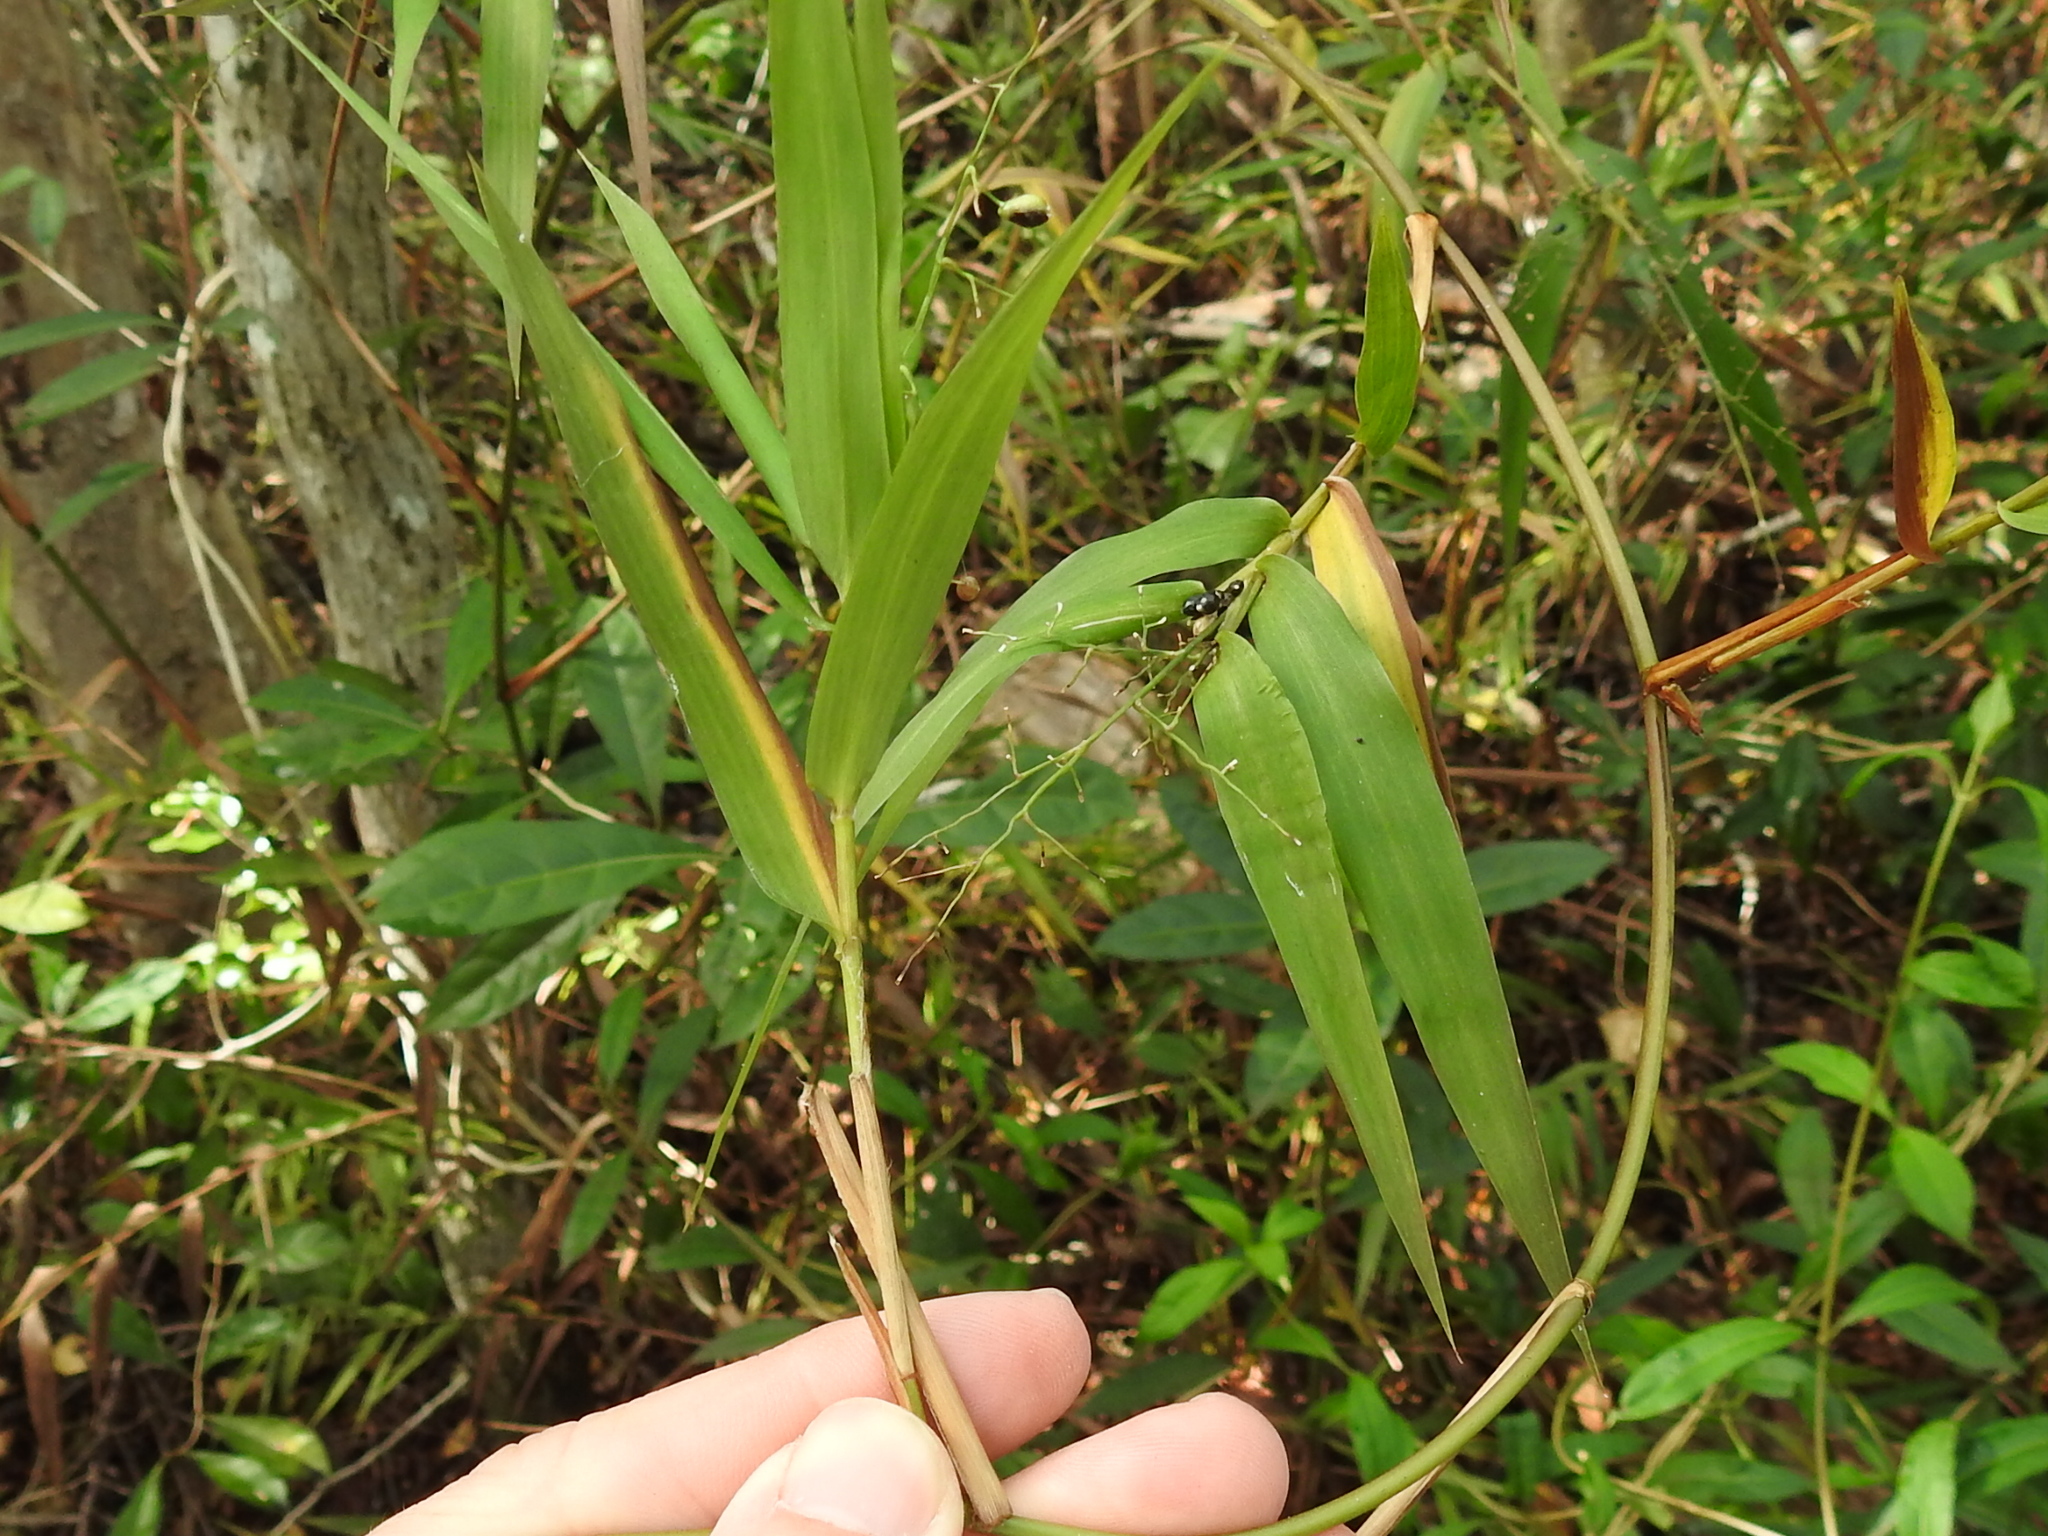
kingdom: Plantae
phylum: Tracheophyta
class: Liliopsida
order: Poales
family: Poaceae
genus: Lasiacis
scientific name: Lasiacis divaricata
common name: Smallcane
